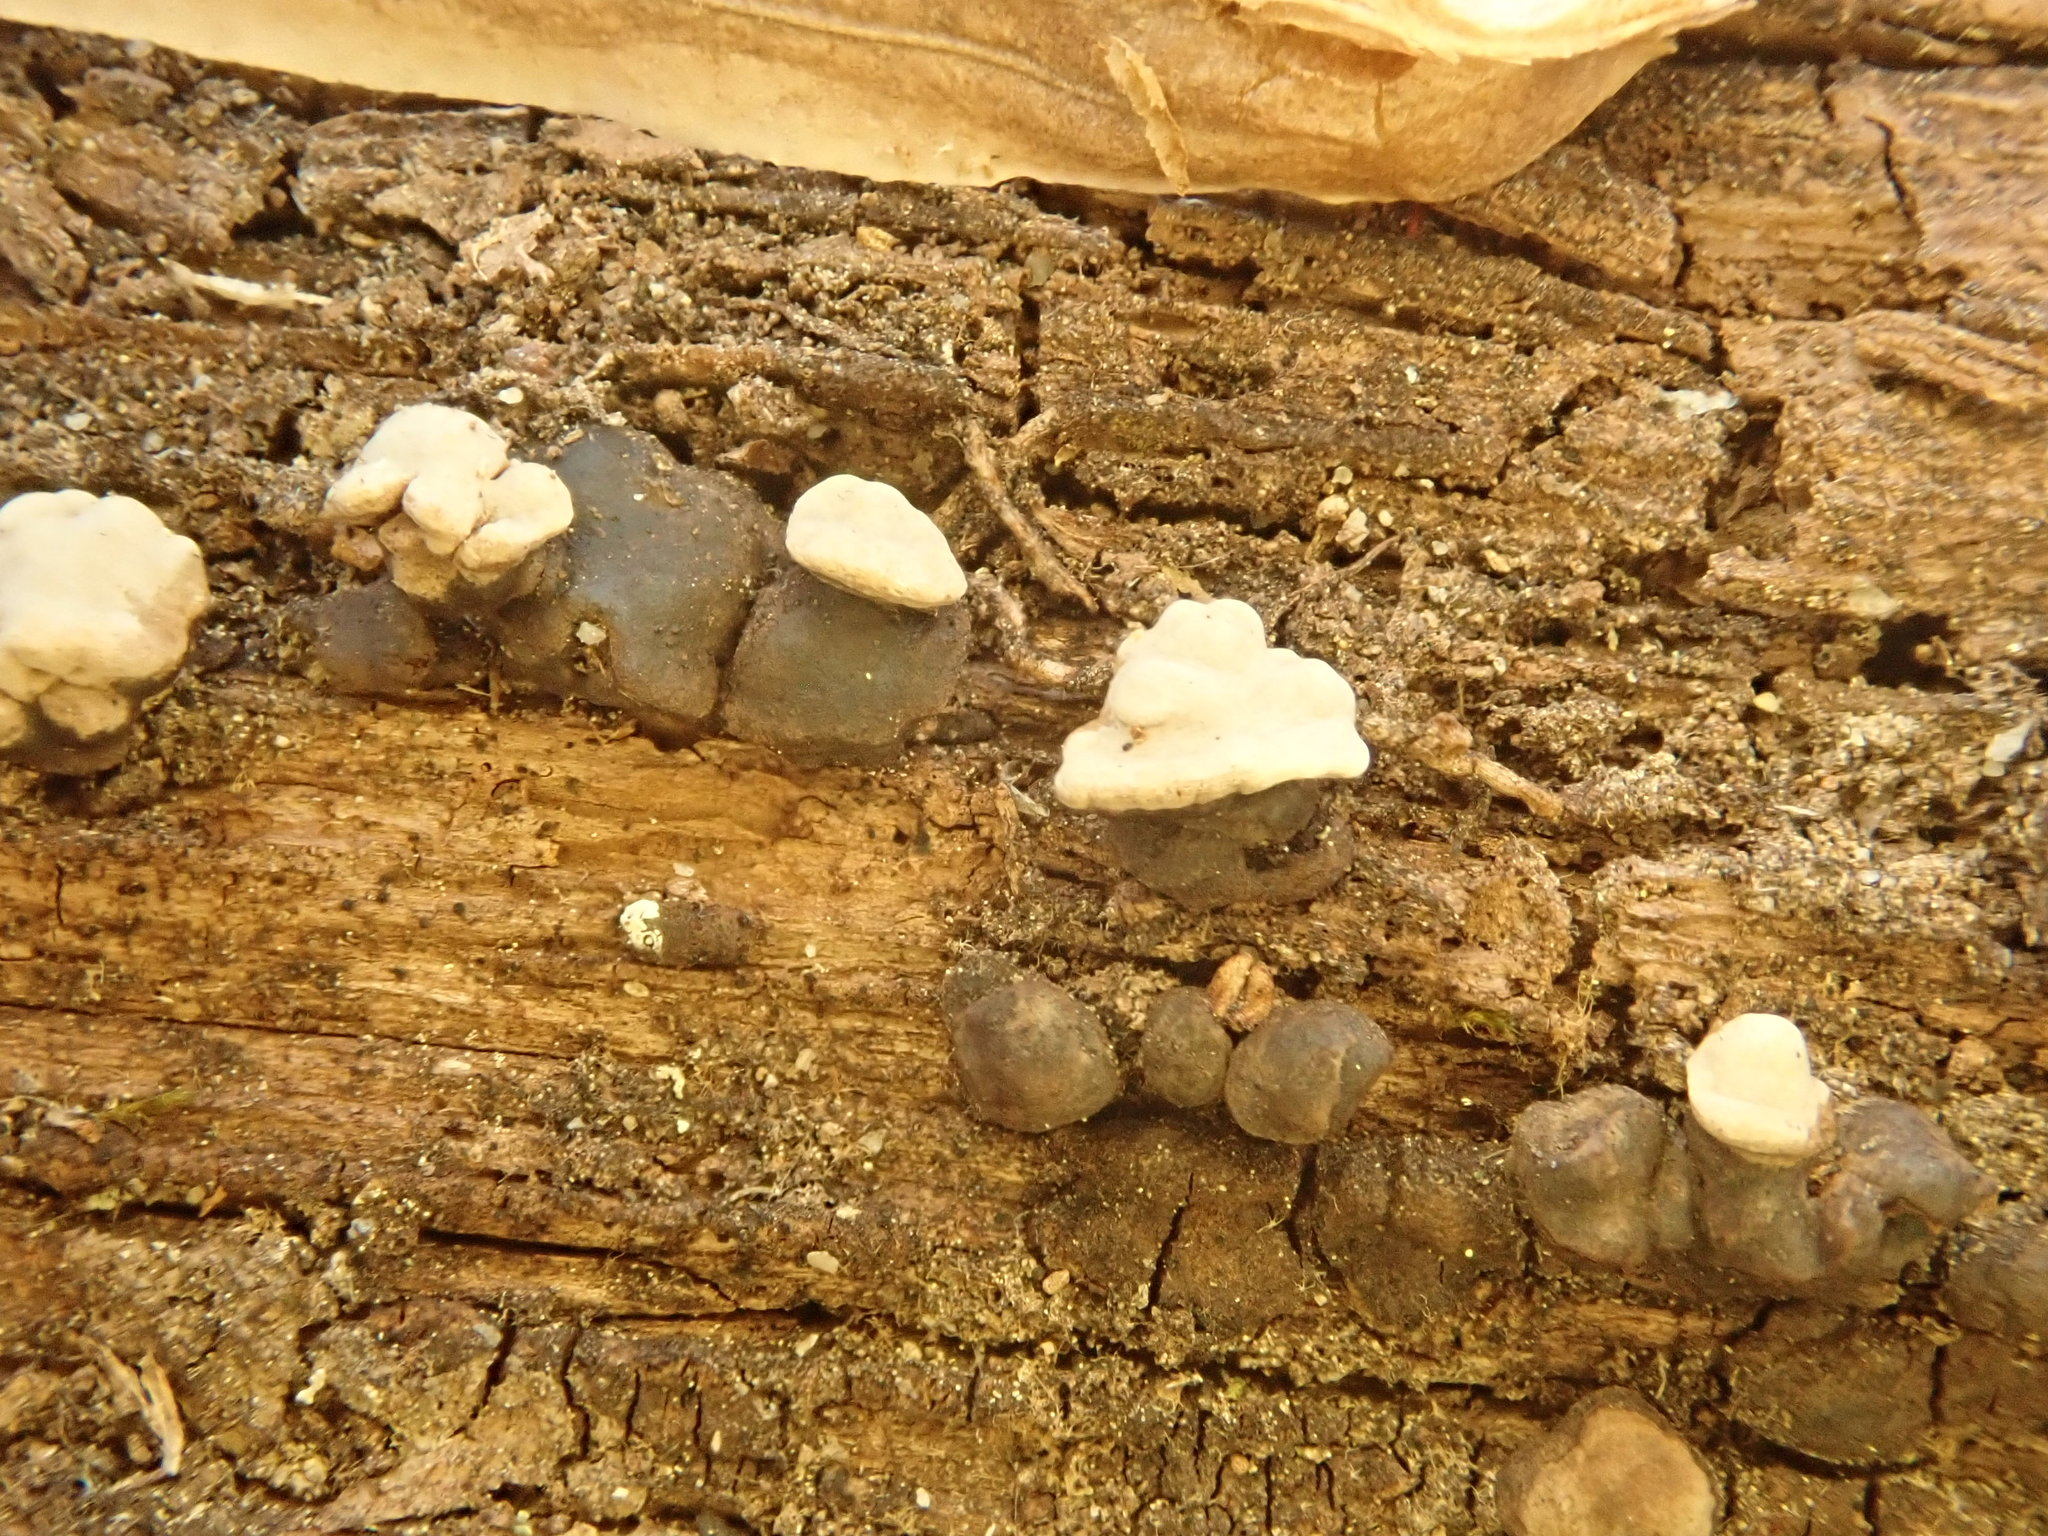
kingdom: Fungi
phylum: Basidiomycota
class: Agaricomycetes
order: Russulales
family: Stereaceae
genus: Xylobolus
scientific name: Xylobolus frustulatus
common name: Ceramic parchment
